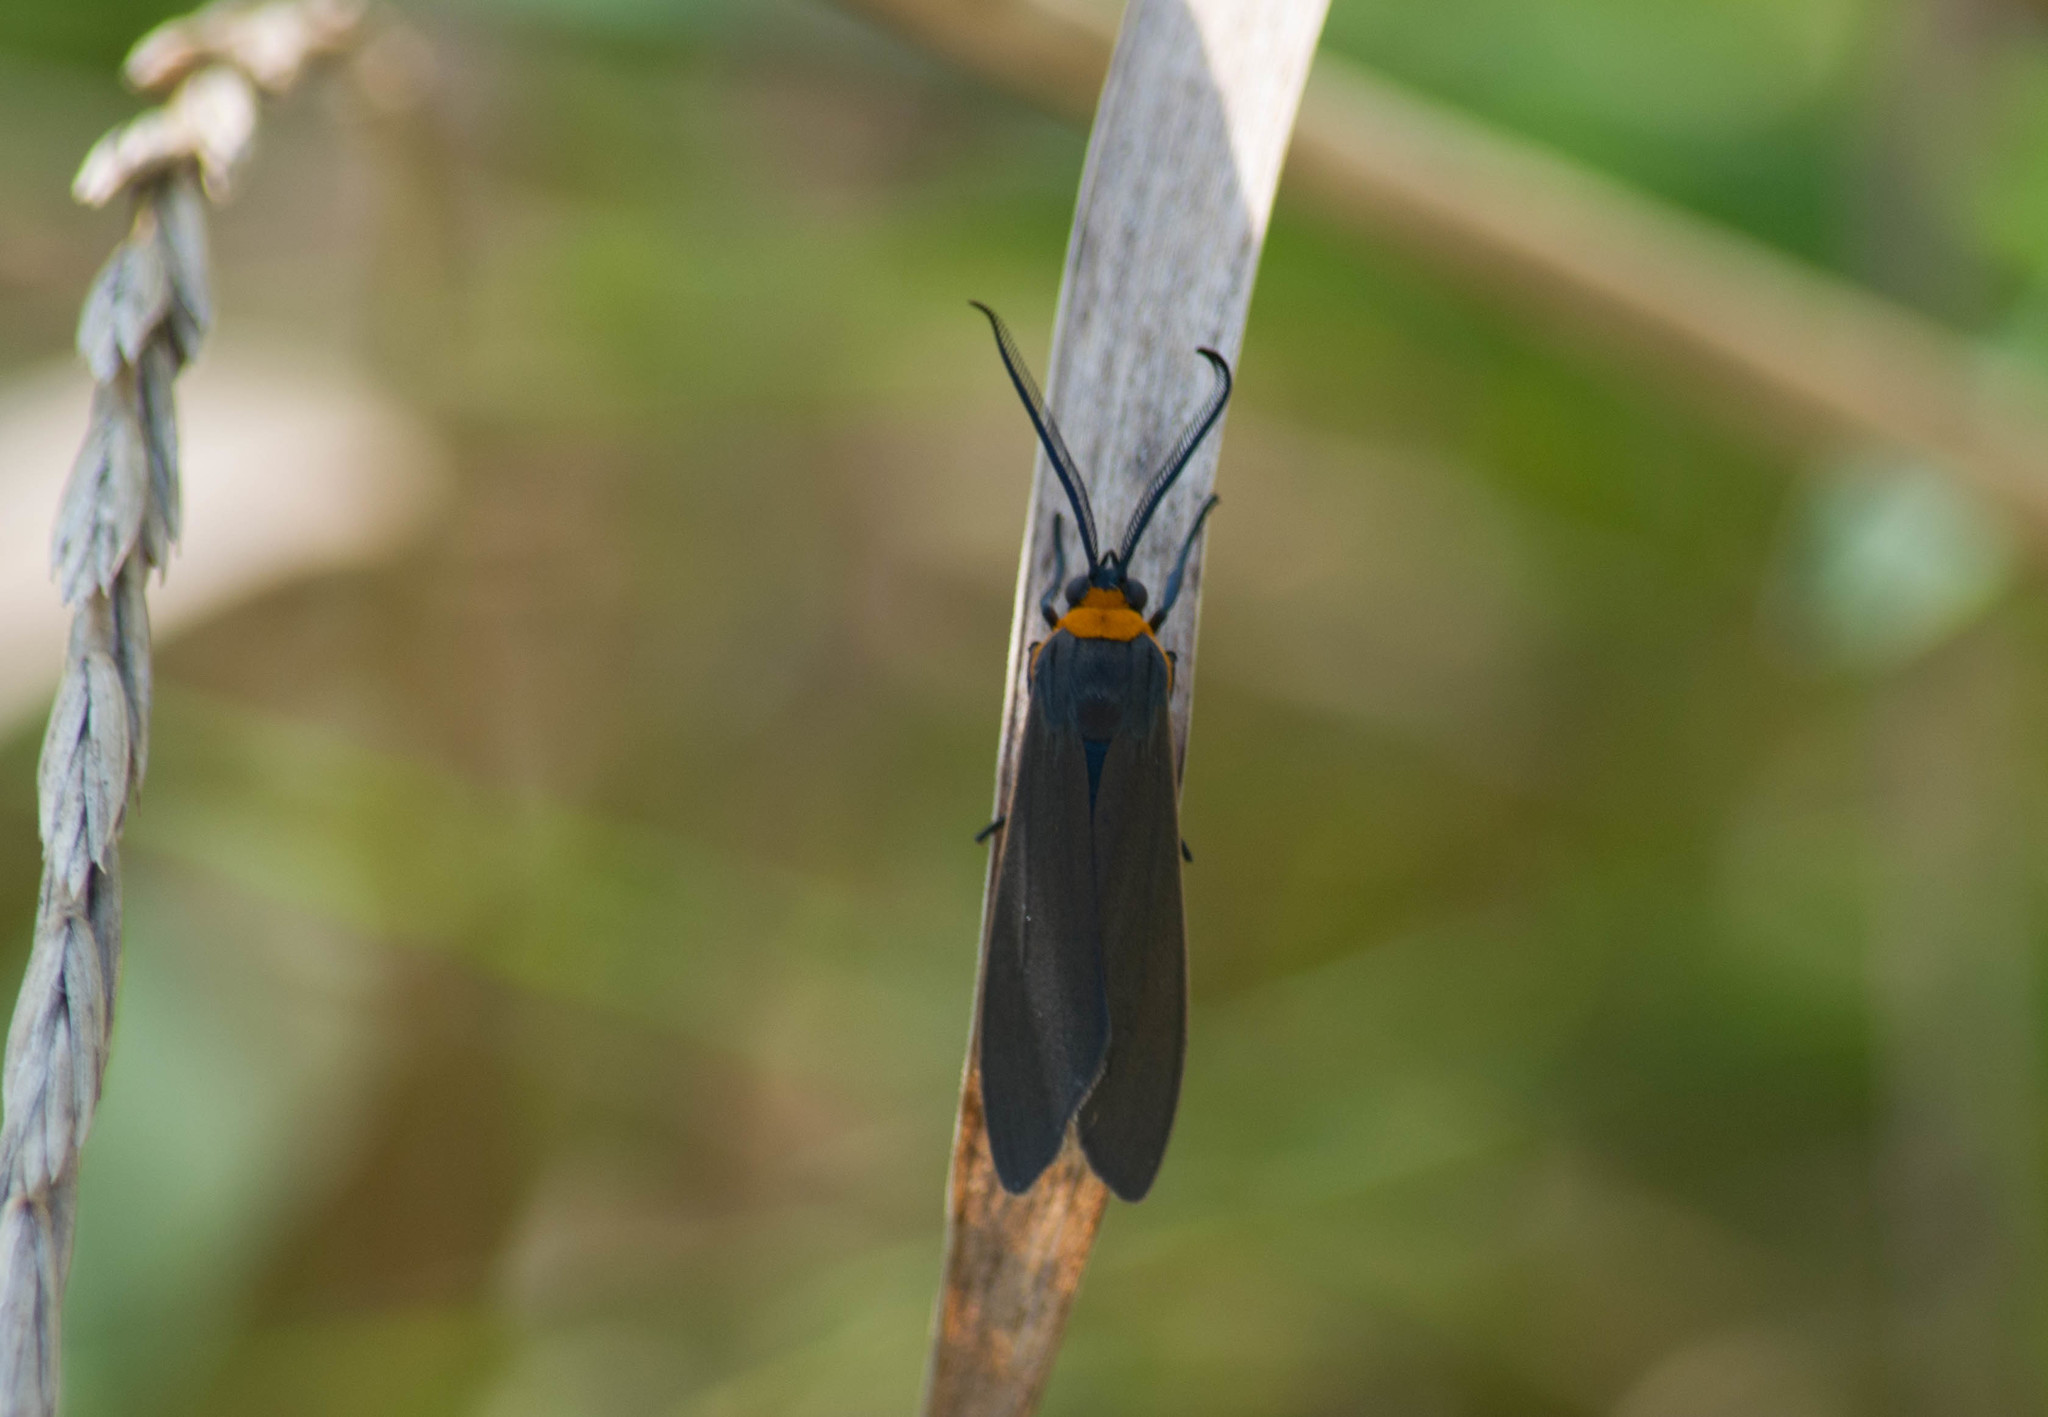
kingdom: Animalia
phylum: Arthropoda
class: Insecta
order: Lepidoptera
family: Erebidae
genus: Cisseps
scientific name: Cisseps fulvicollis
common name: Yellow-collared scape moth
